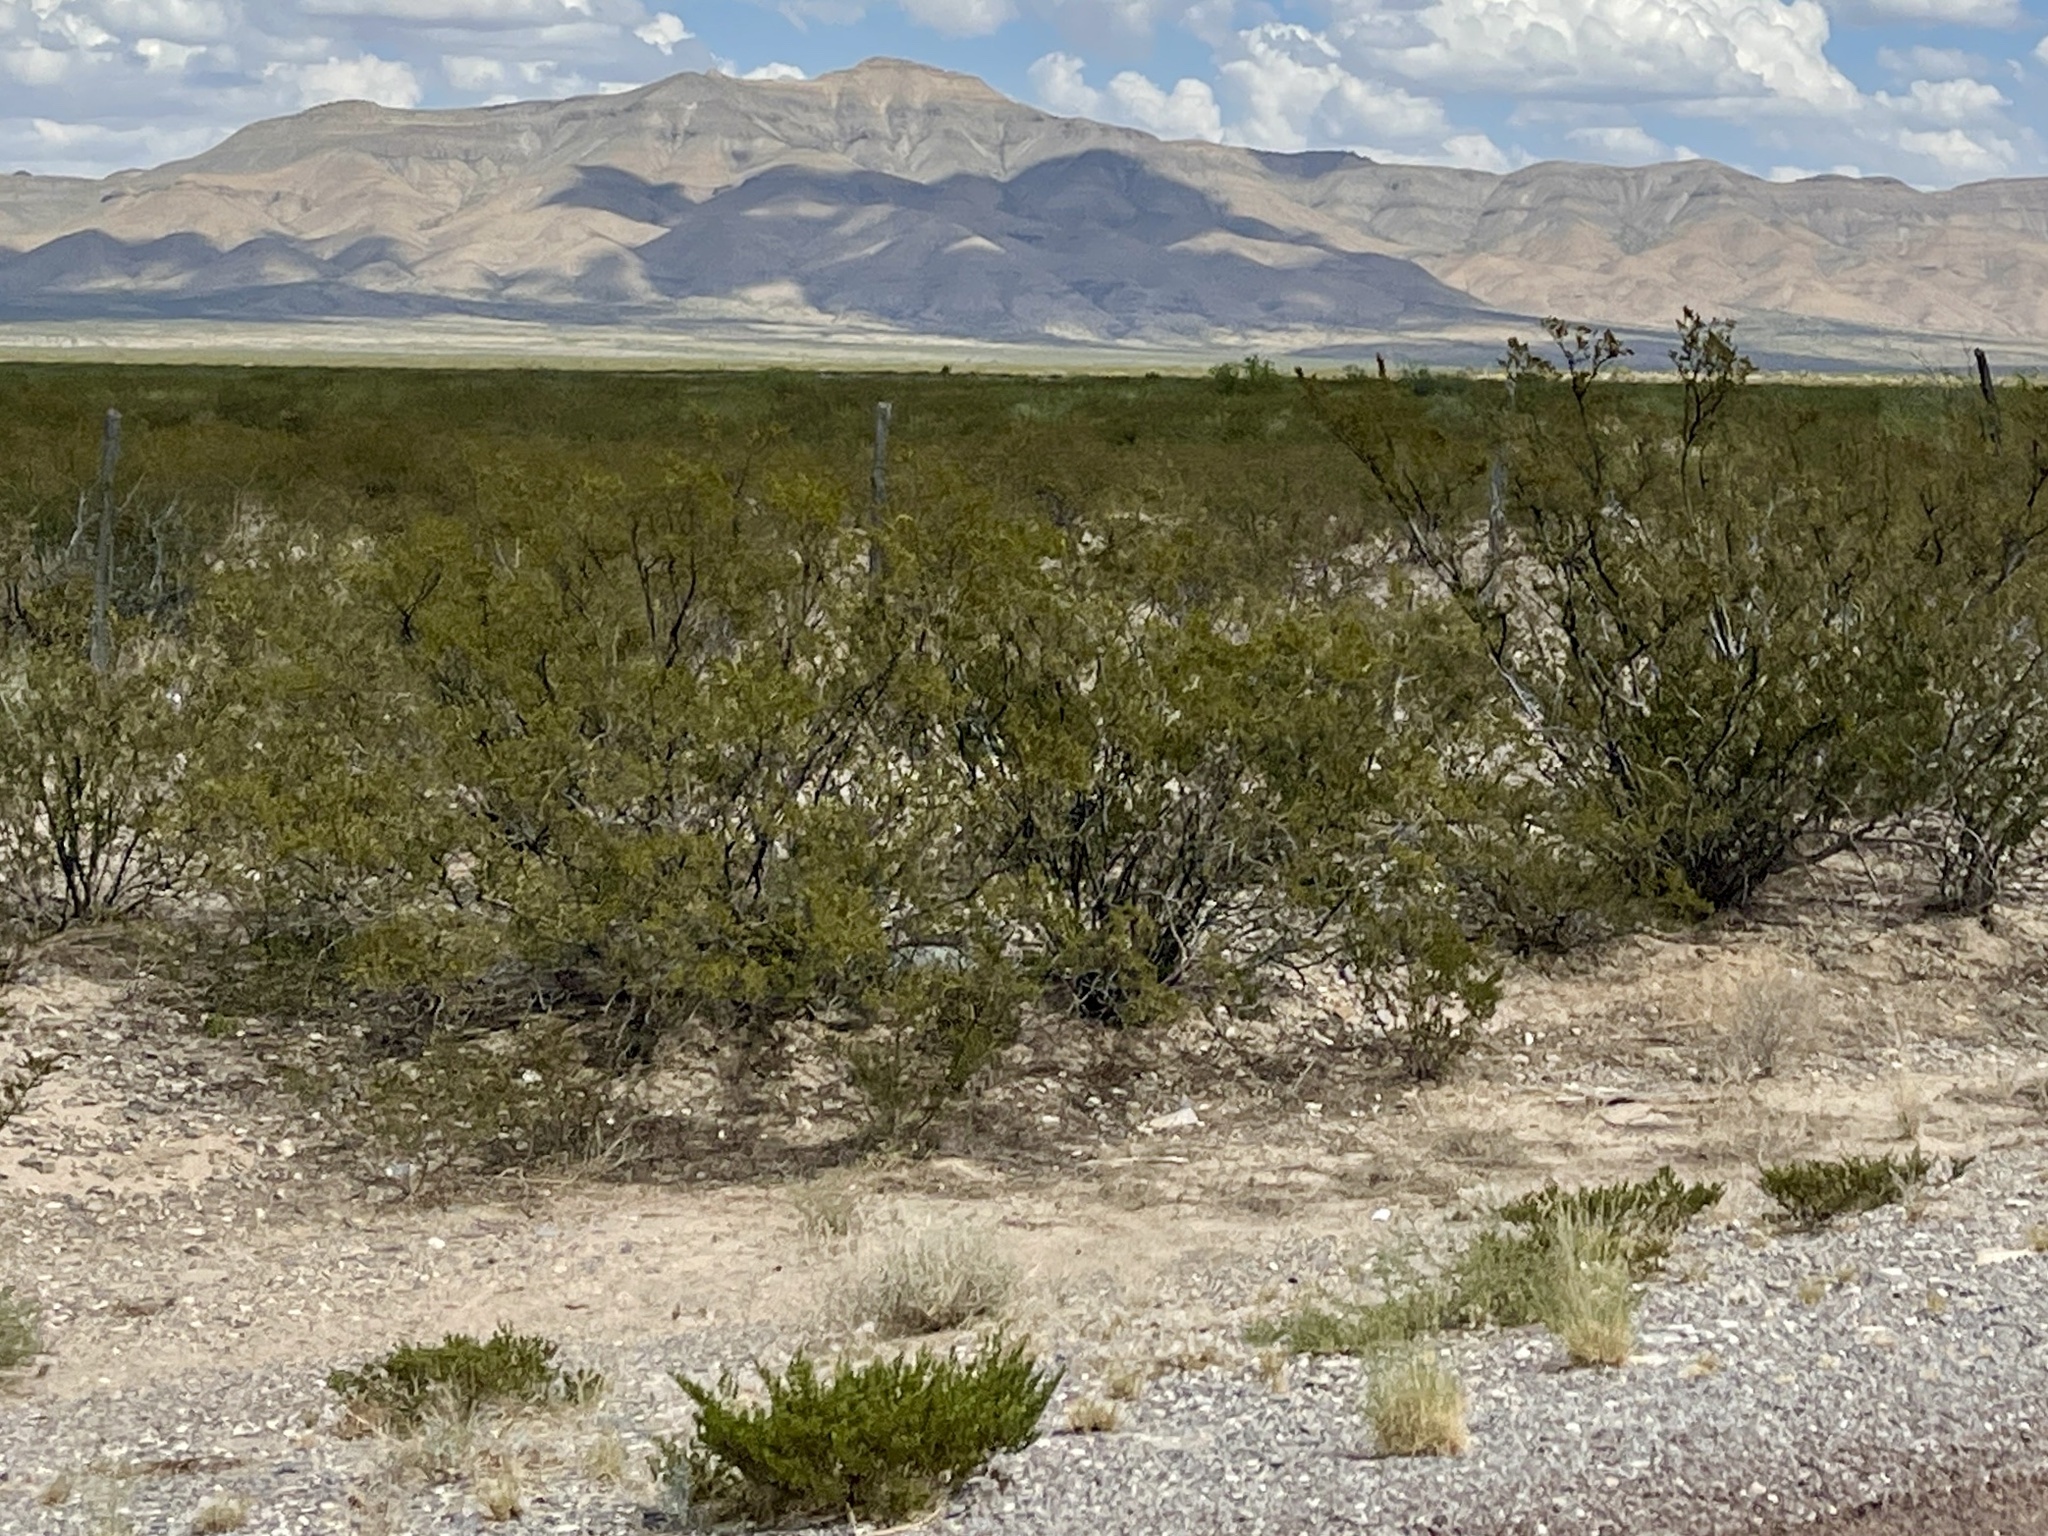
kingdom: Plantae
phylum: Tracheophyta
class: Magnoliopsida
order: Zygophyllales
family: Zygophyllaceae
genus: Larrea
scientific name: Larrea tridentata
